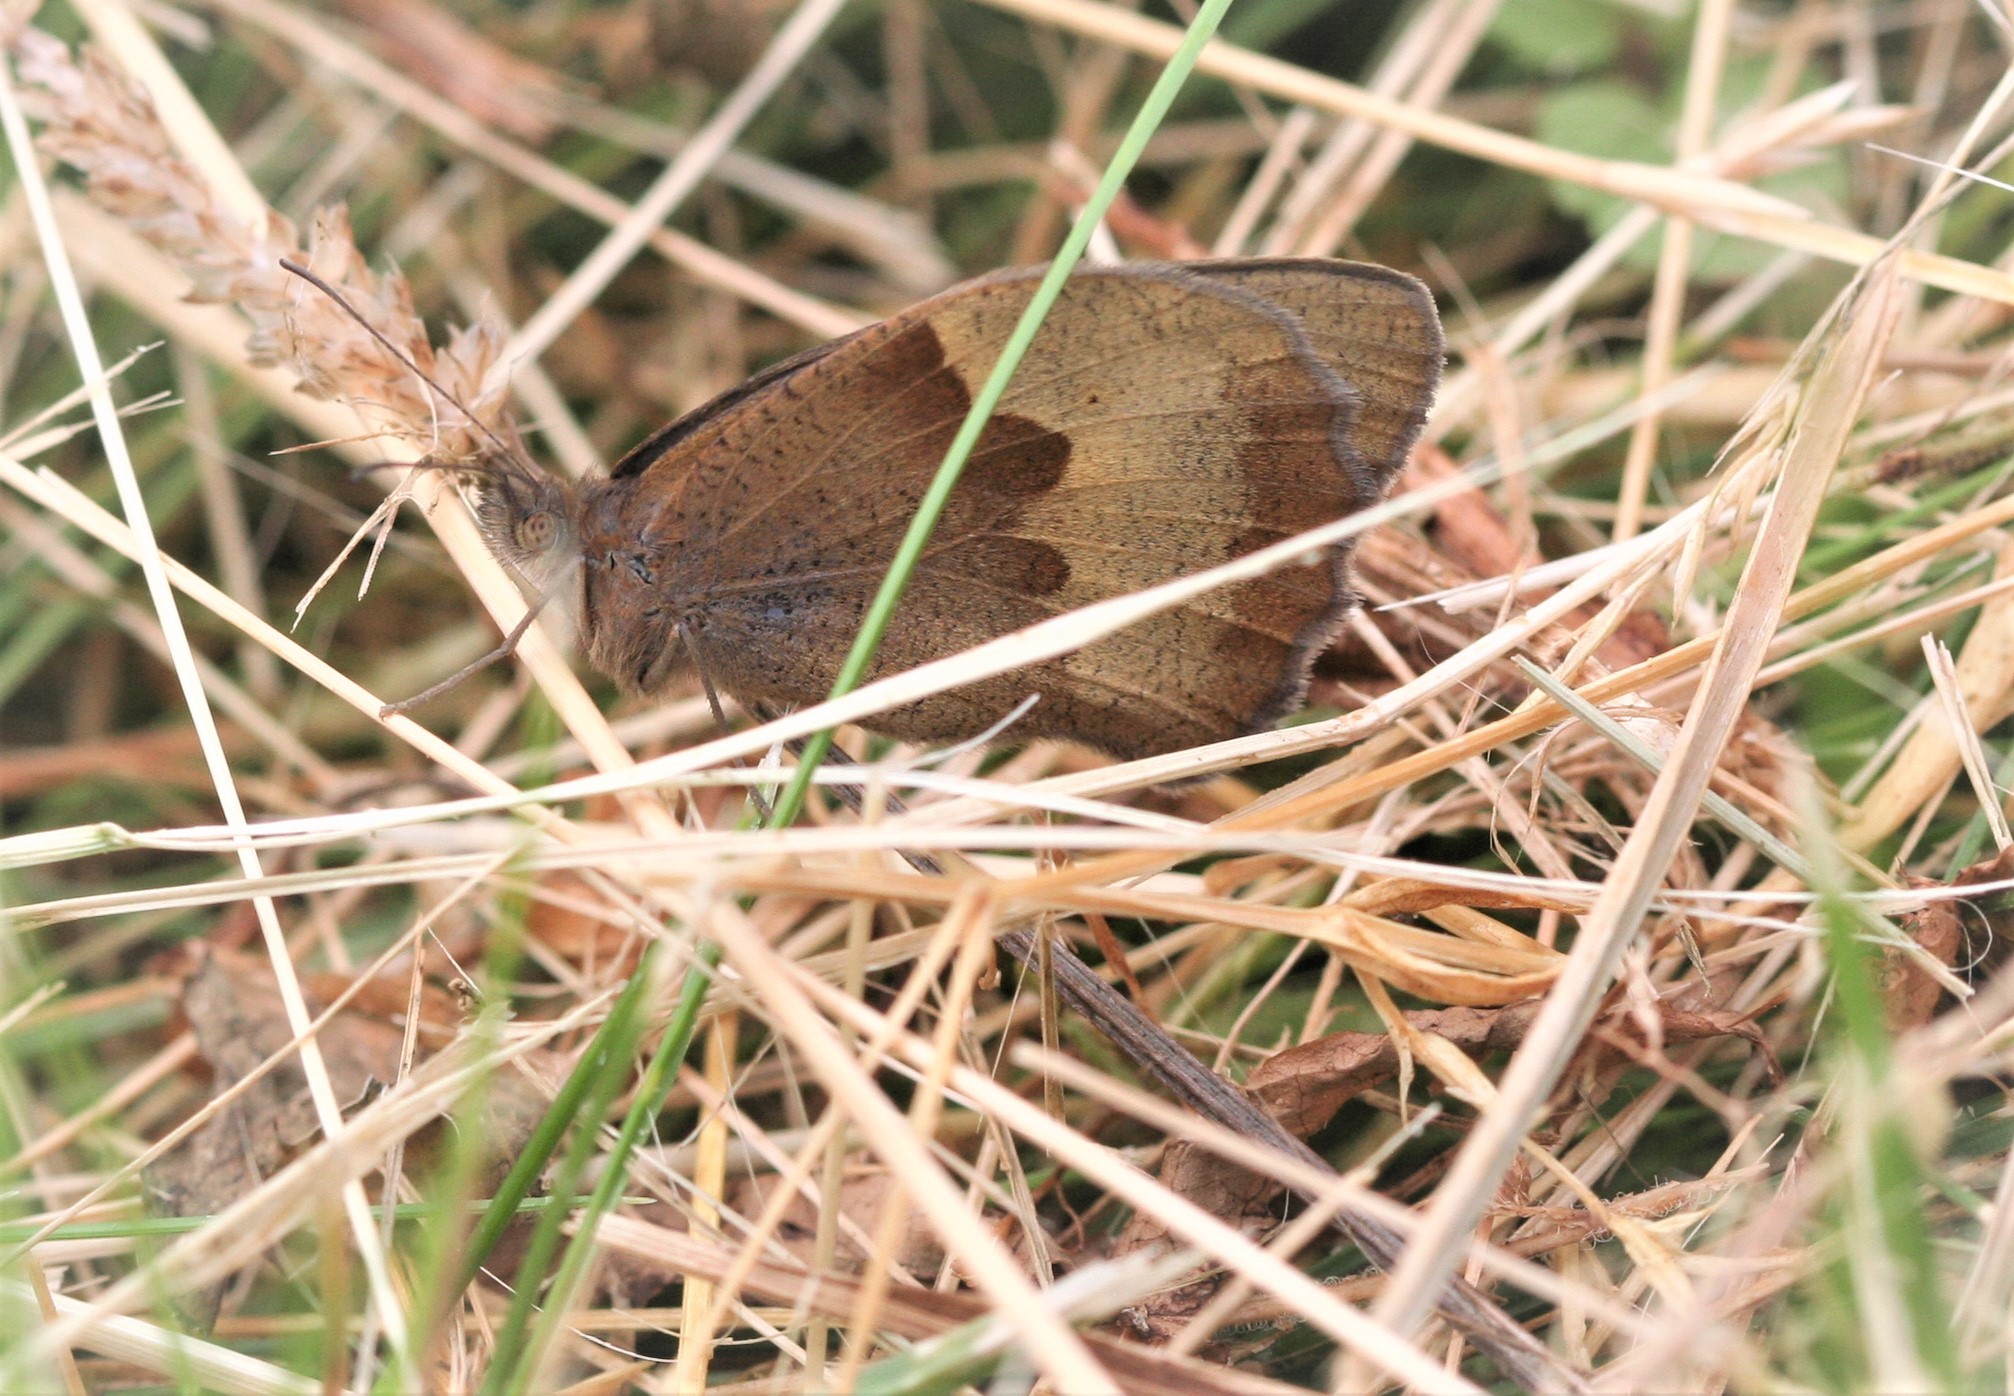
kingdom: Animalia
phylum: Arthropoda
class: Insecta
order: Lepidoptera
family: Nymphalidae
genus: Maniola
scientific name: Maniola jurtina
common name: Meadow brown
